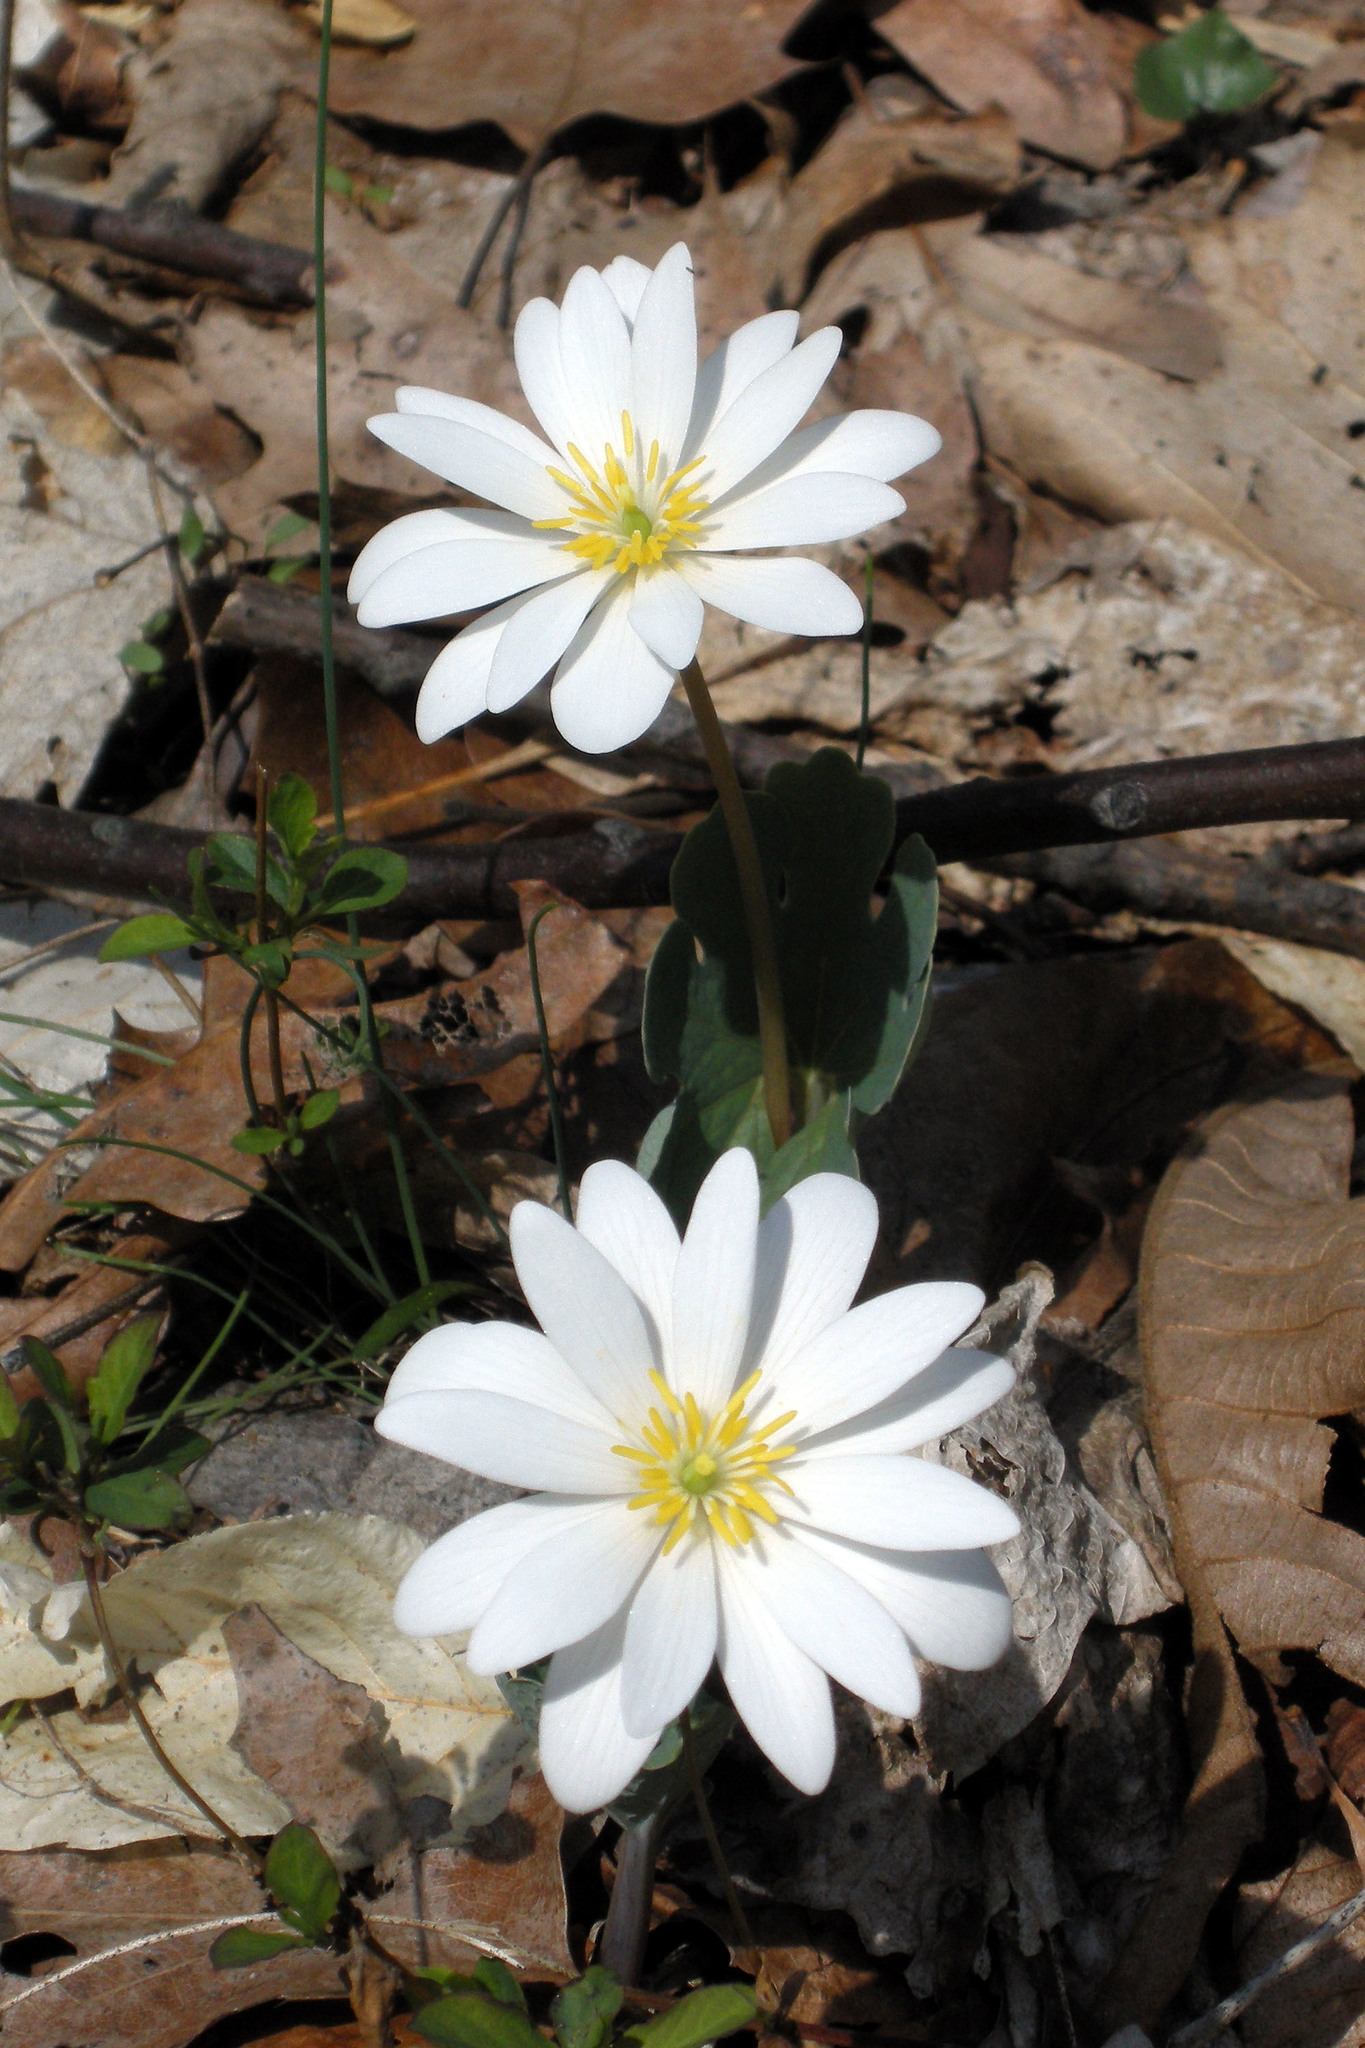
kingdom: Plantae
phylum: Tracheophyta
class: Magnoliopsida
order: Ranunculales
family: Papaveraceae
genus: Sanguinaria
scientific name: Sanguinaria canadensis
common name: Bloodroot
